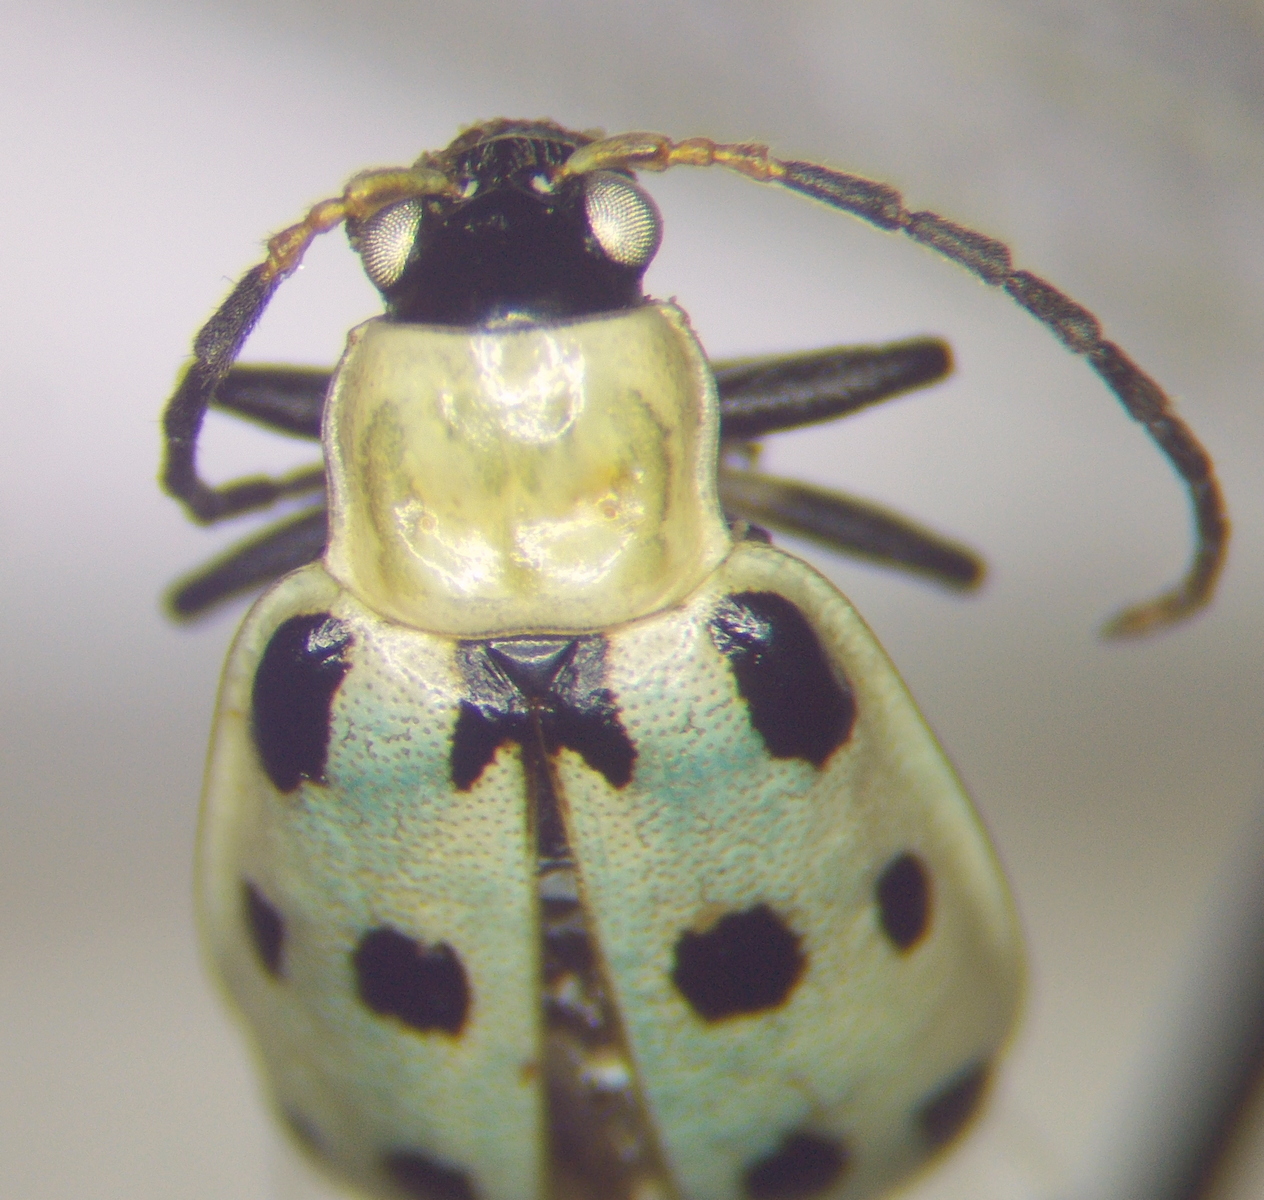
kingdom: Animalia
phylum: Arthropoda
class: Insecta
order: Coleoptera
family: Chrysomelidae
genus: Diabrotica
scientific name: Diabrotica undecimpunctata
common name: Spotted cucumber beetle
